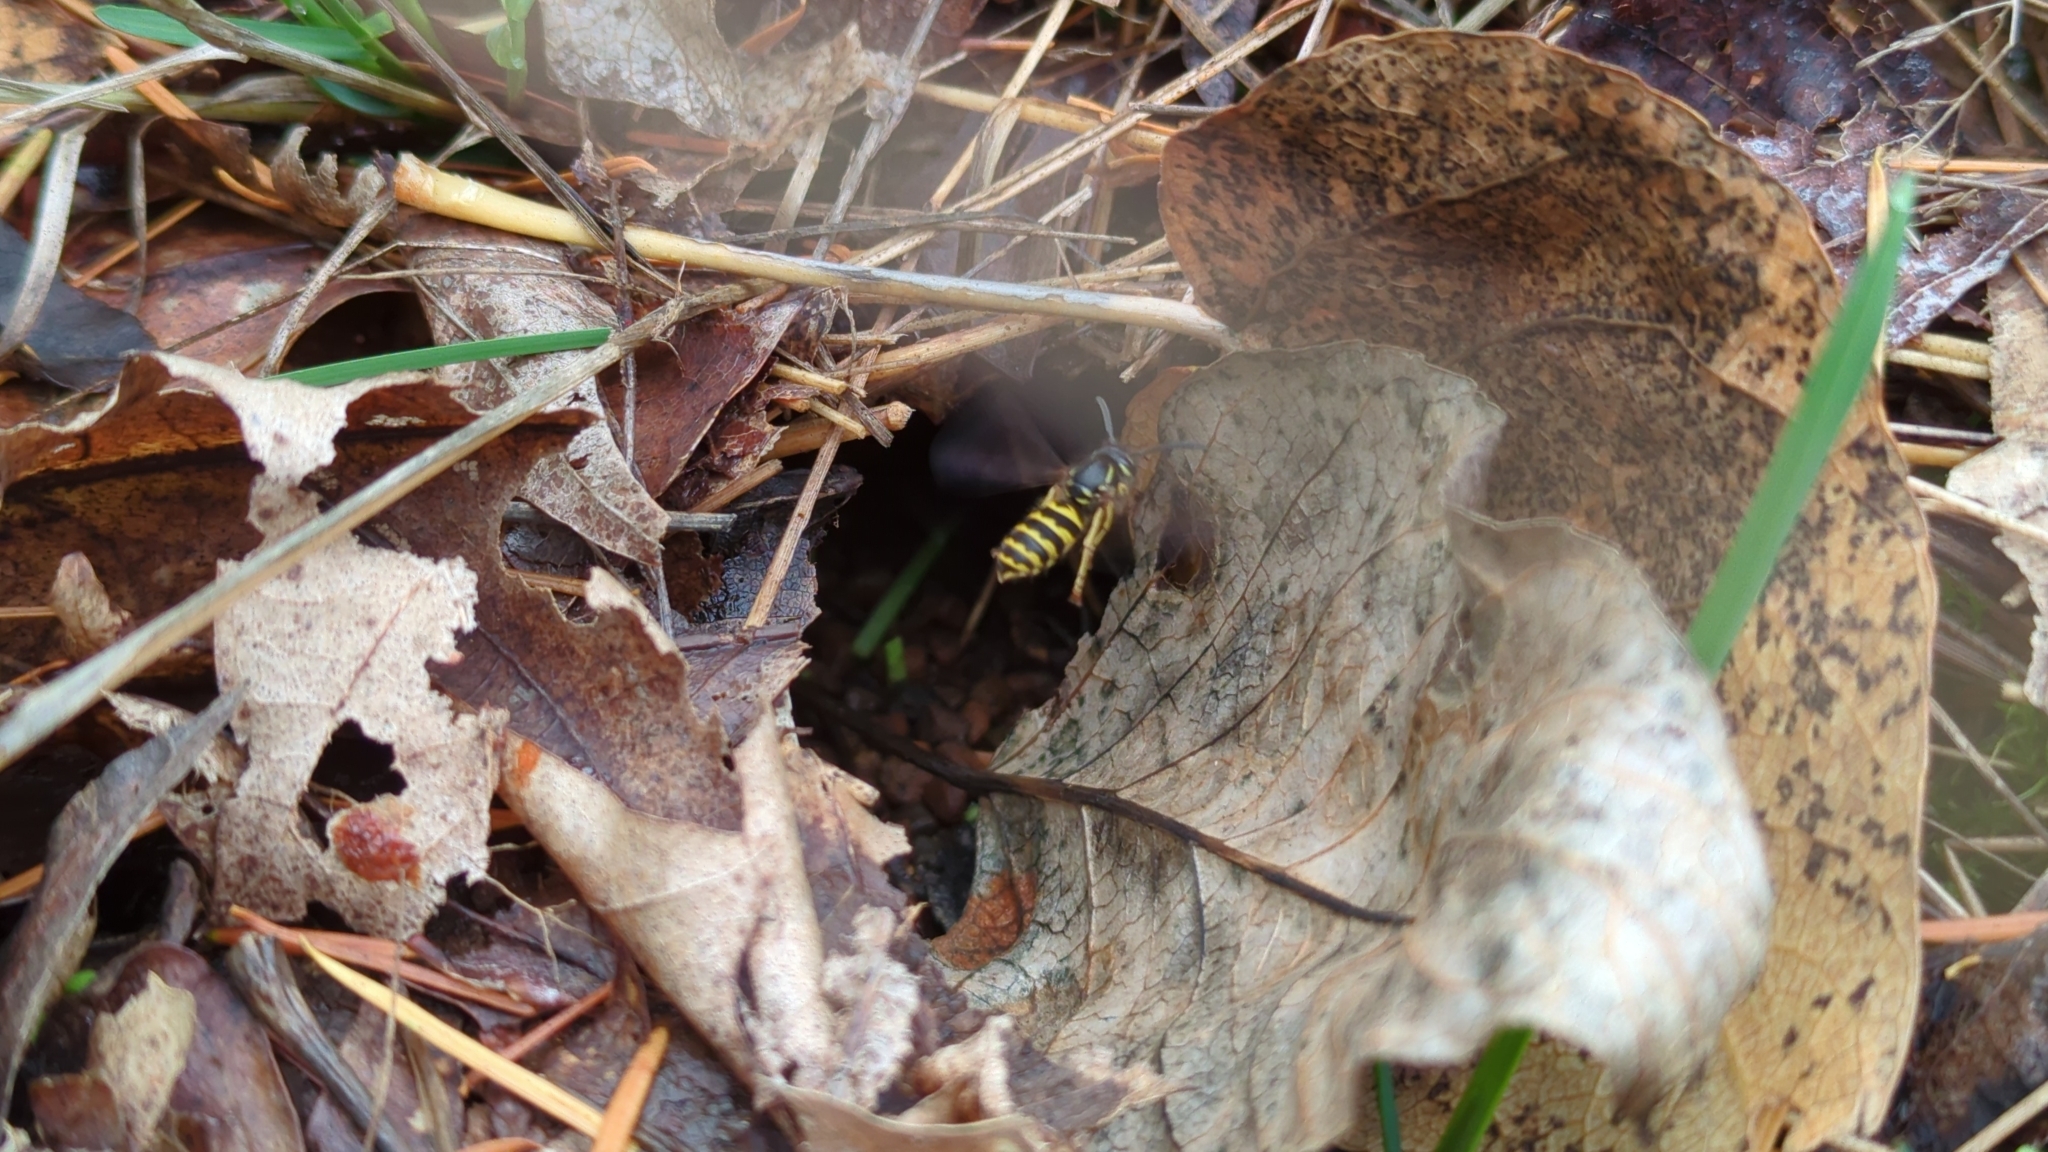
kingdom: Animalia
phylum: Arthropoda
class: Insecta
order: Hymenoptera
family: Vespidae
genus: Vespula
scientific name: Vespula alascensis
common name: Alaska yellowjacket
